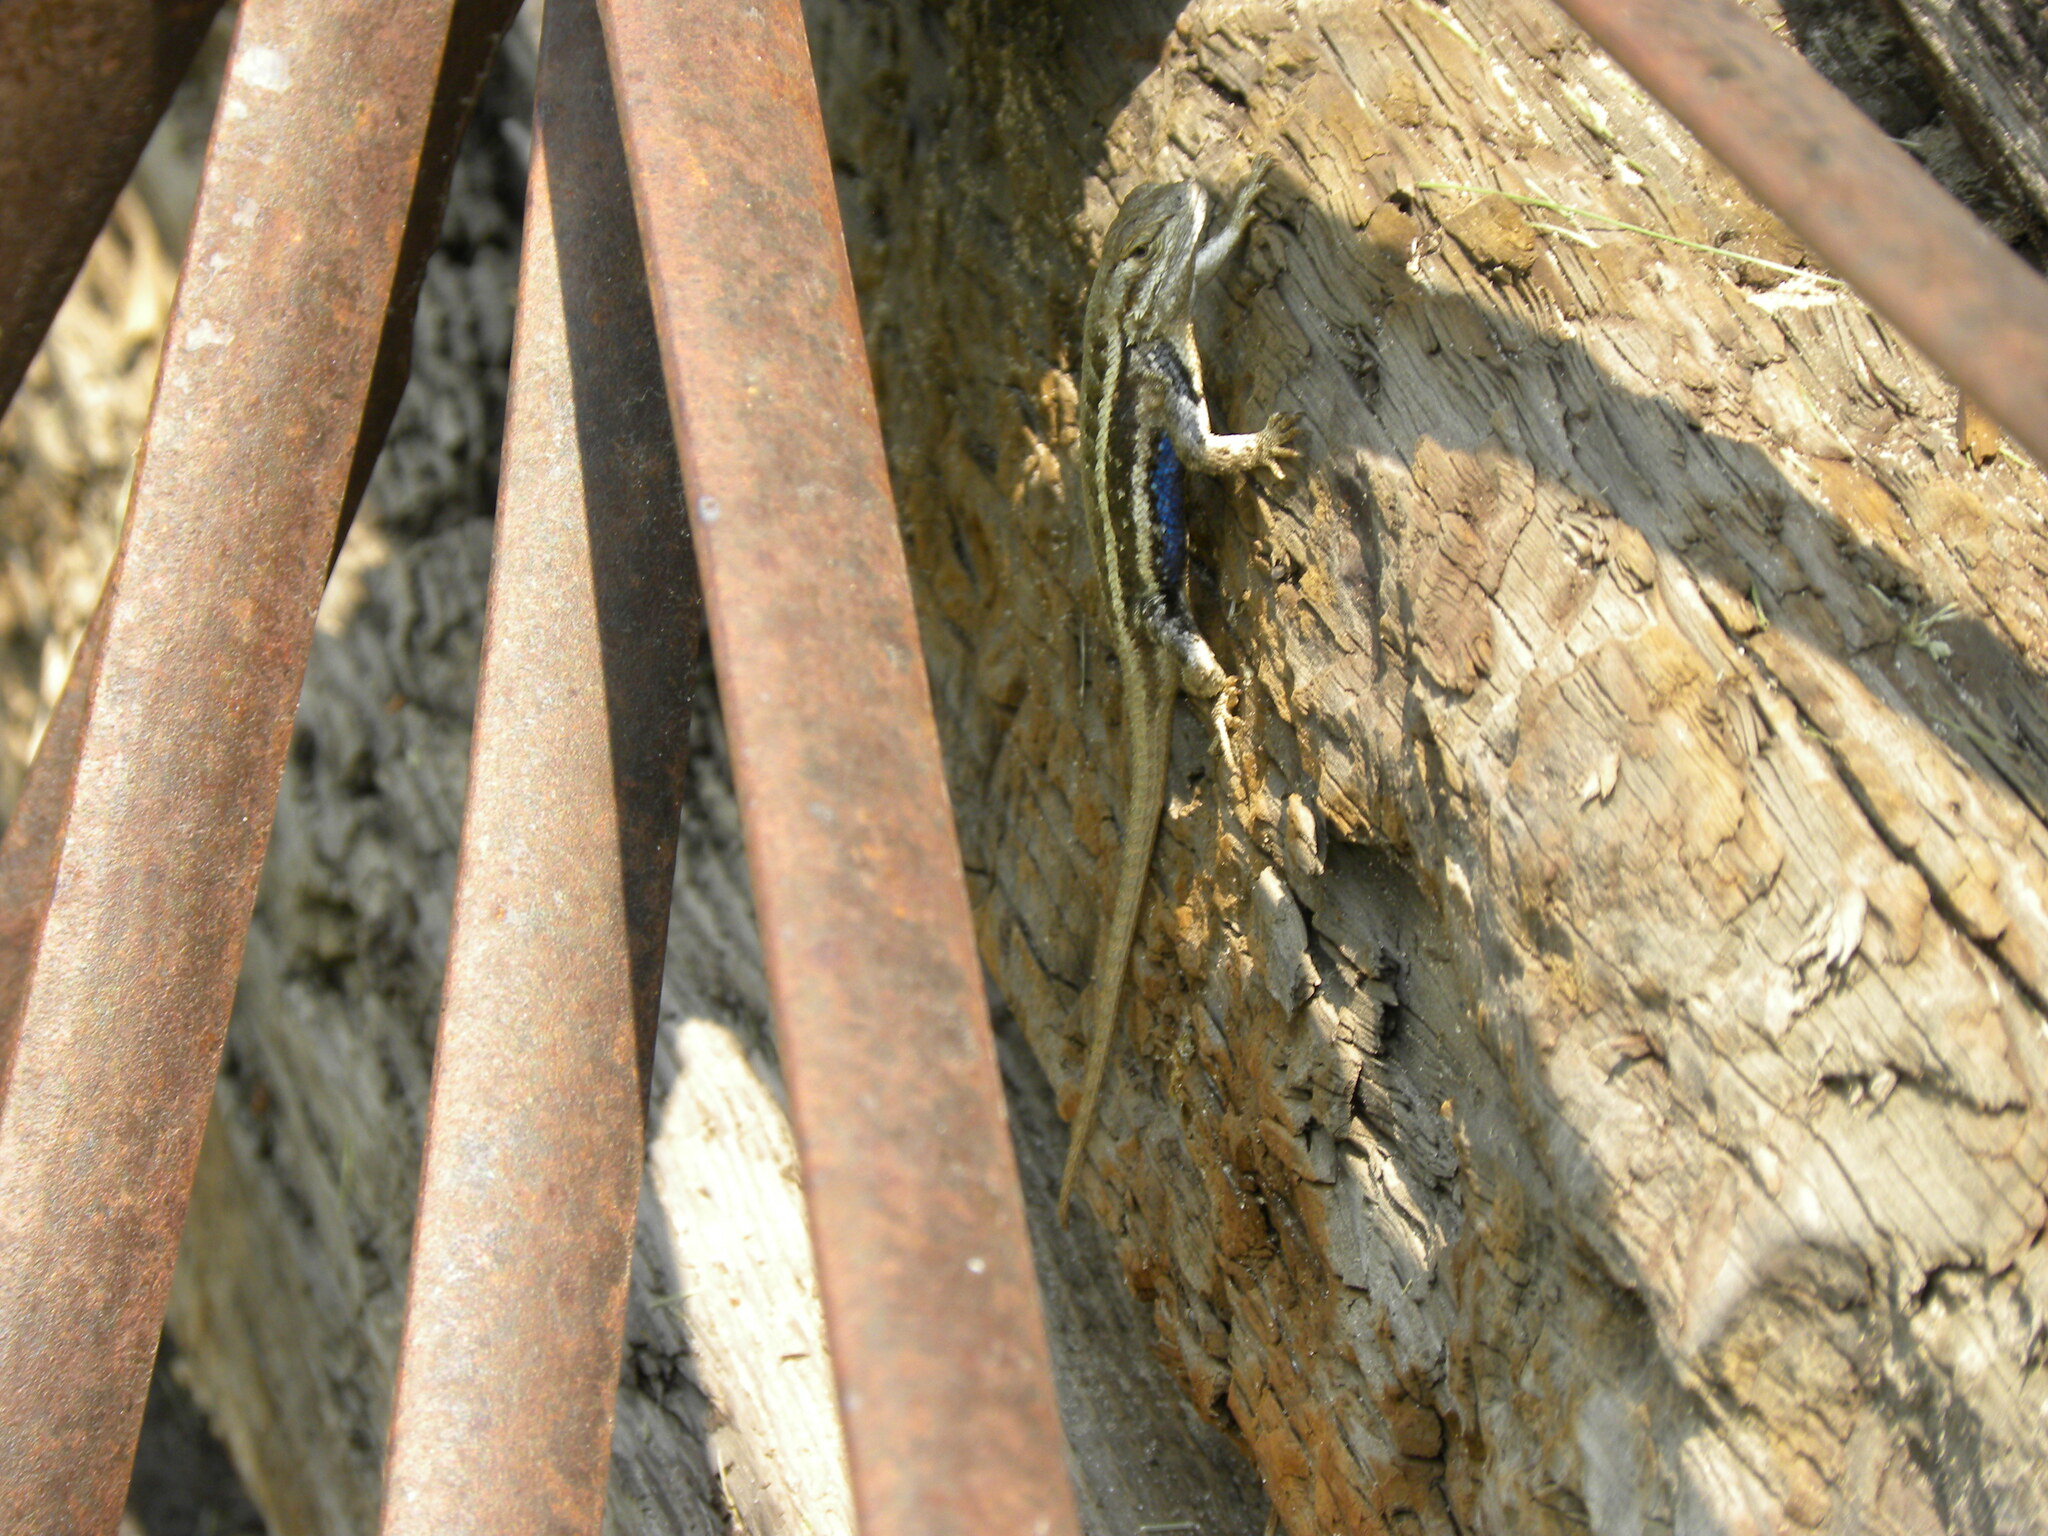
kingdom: Animalia
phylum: Chordata
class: Squamata
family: Phrynosomatidae
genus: Sceloporus
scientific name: Sceloporus consobrinus
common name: Southern prairie lizard
